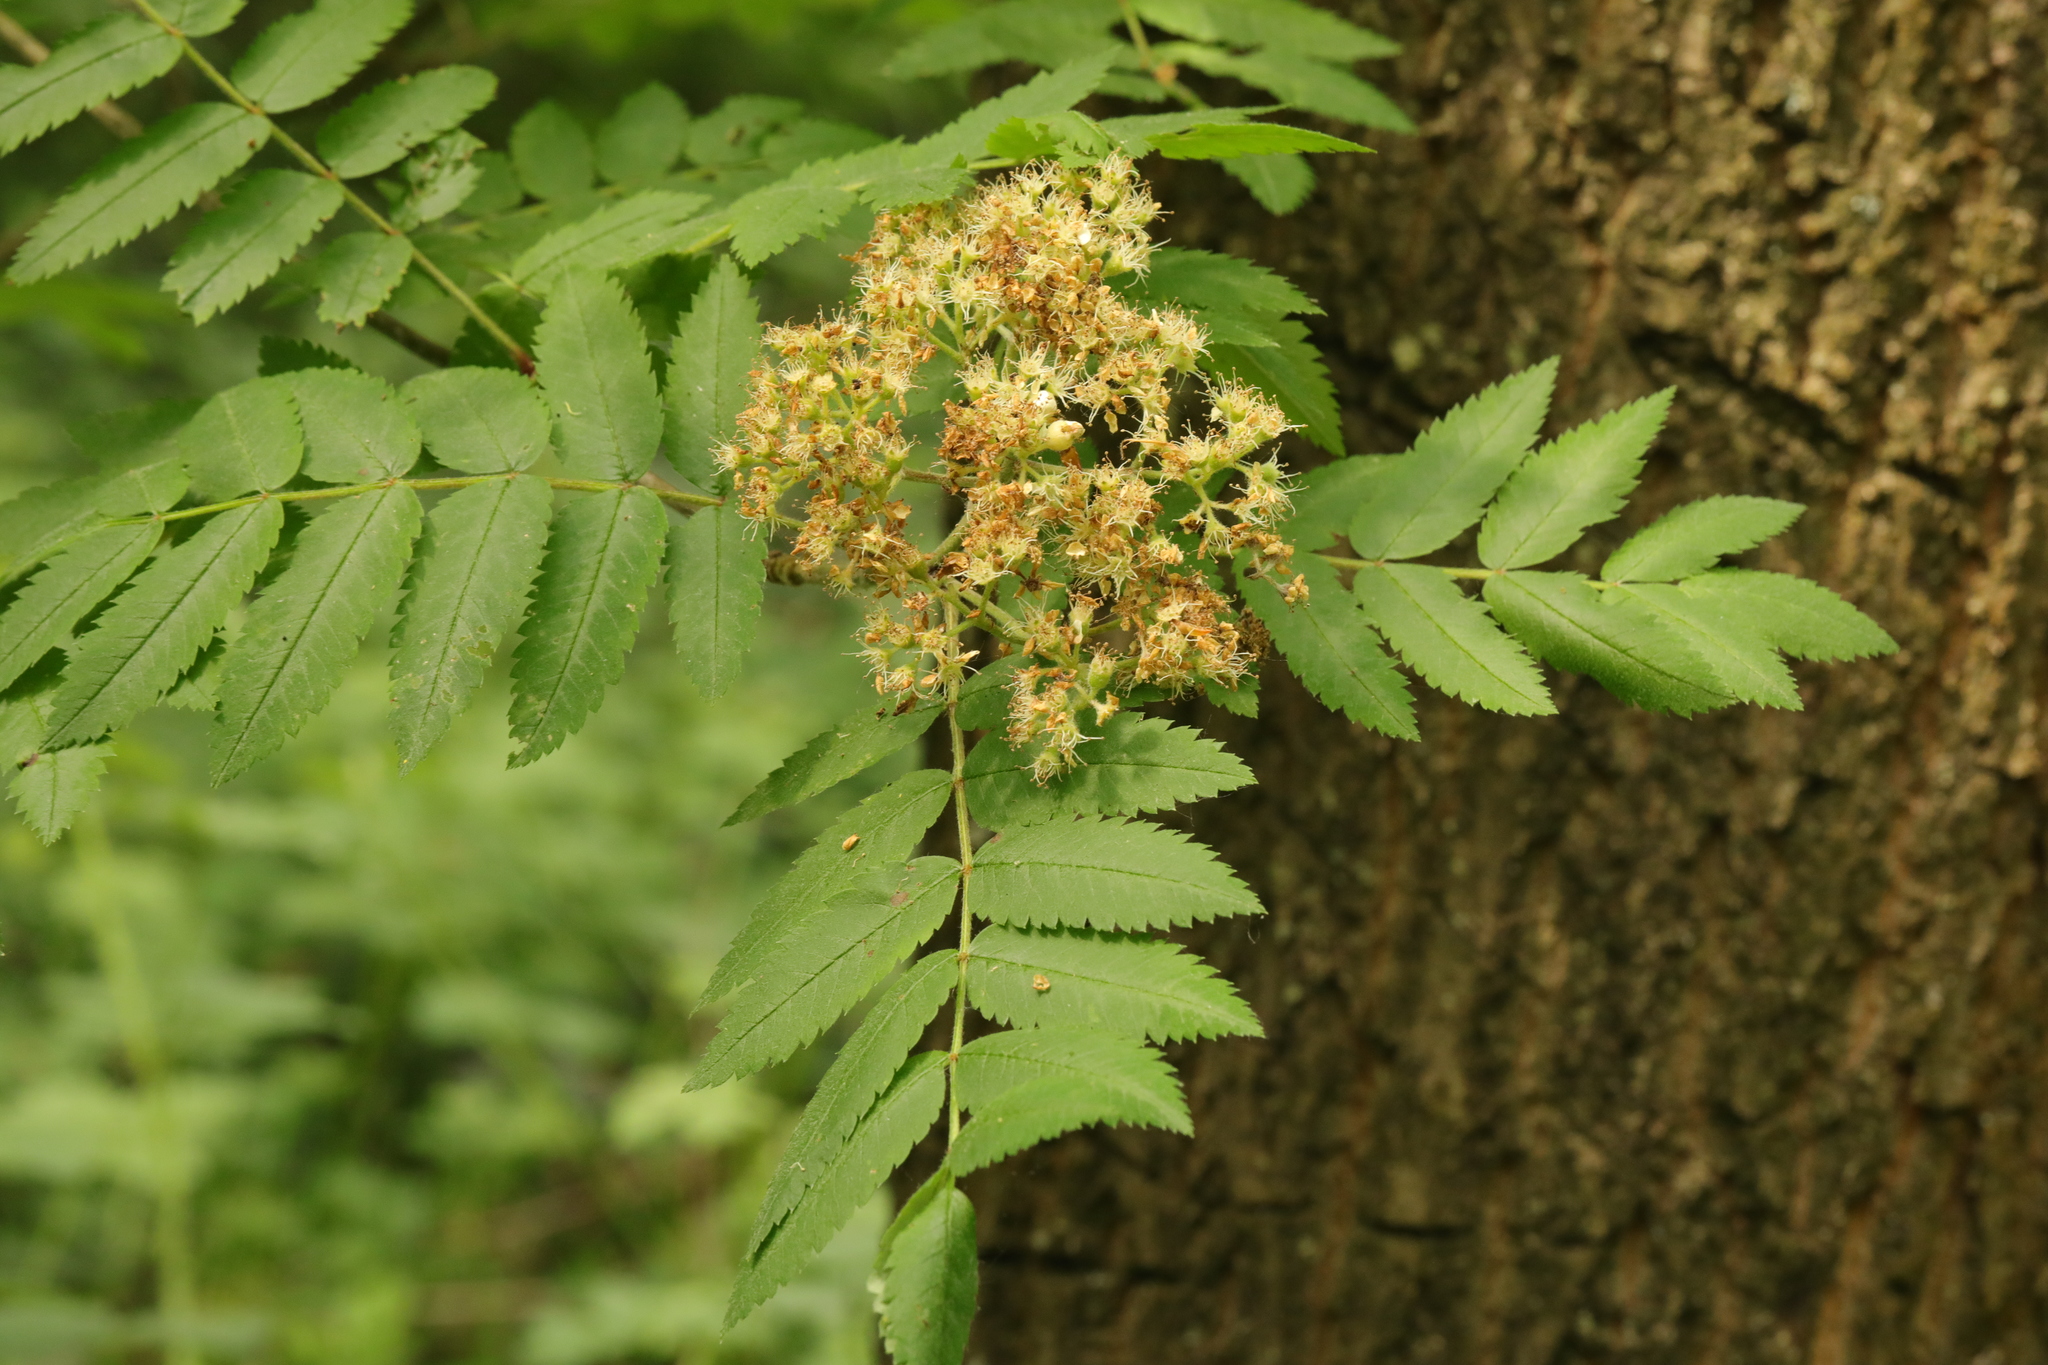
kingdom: Plantae
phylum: Tracheophyta
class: Magnoliopsida
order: Rosales
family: Rosaceae
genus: Sorbus
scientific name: Sorbus aucuparia
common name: Rowan
